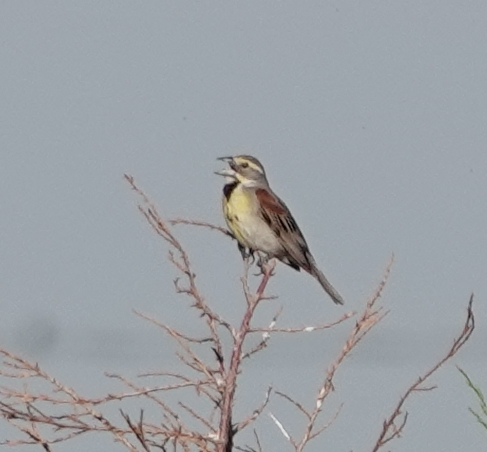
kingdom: Animalia
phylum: Chordata
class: Aves
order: Passeriformes
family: Cardinalidae
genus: Spiza
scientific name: Spiza americana
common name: Dickcissel
